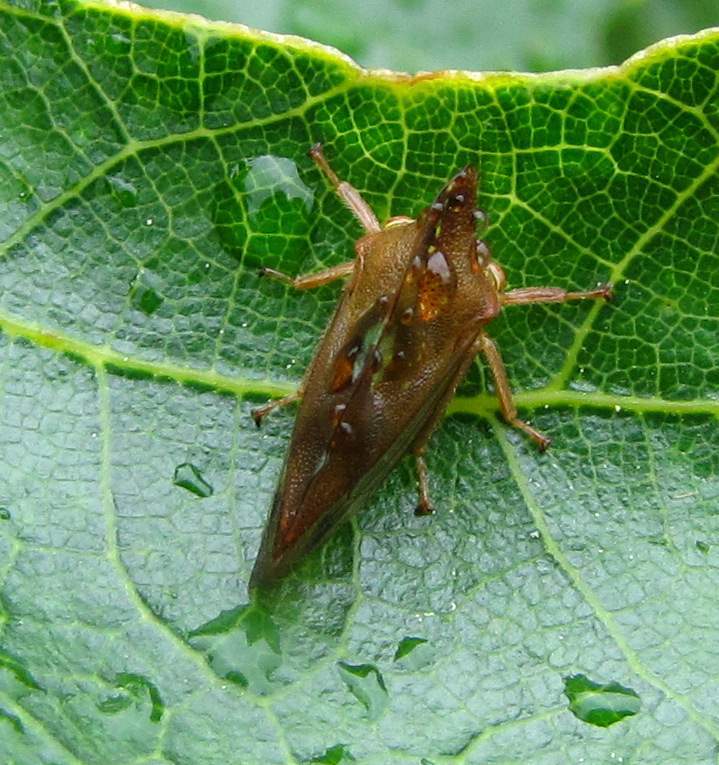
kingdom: Animalia
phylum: Arthropoda
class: Insecta
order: Hemiptera
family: Membracidae
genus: Smilia
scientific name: Smilia camelus
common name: Camel treehopper
